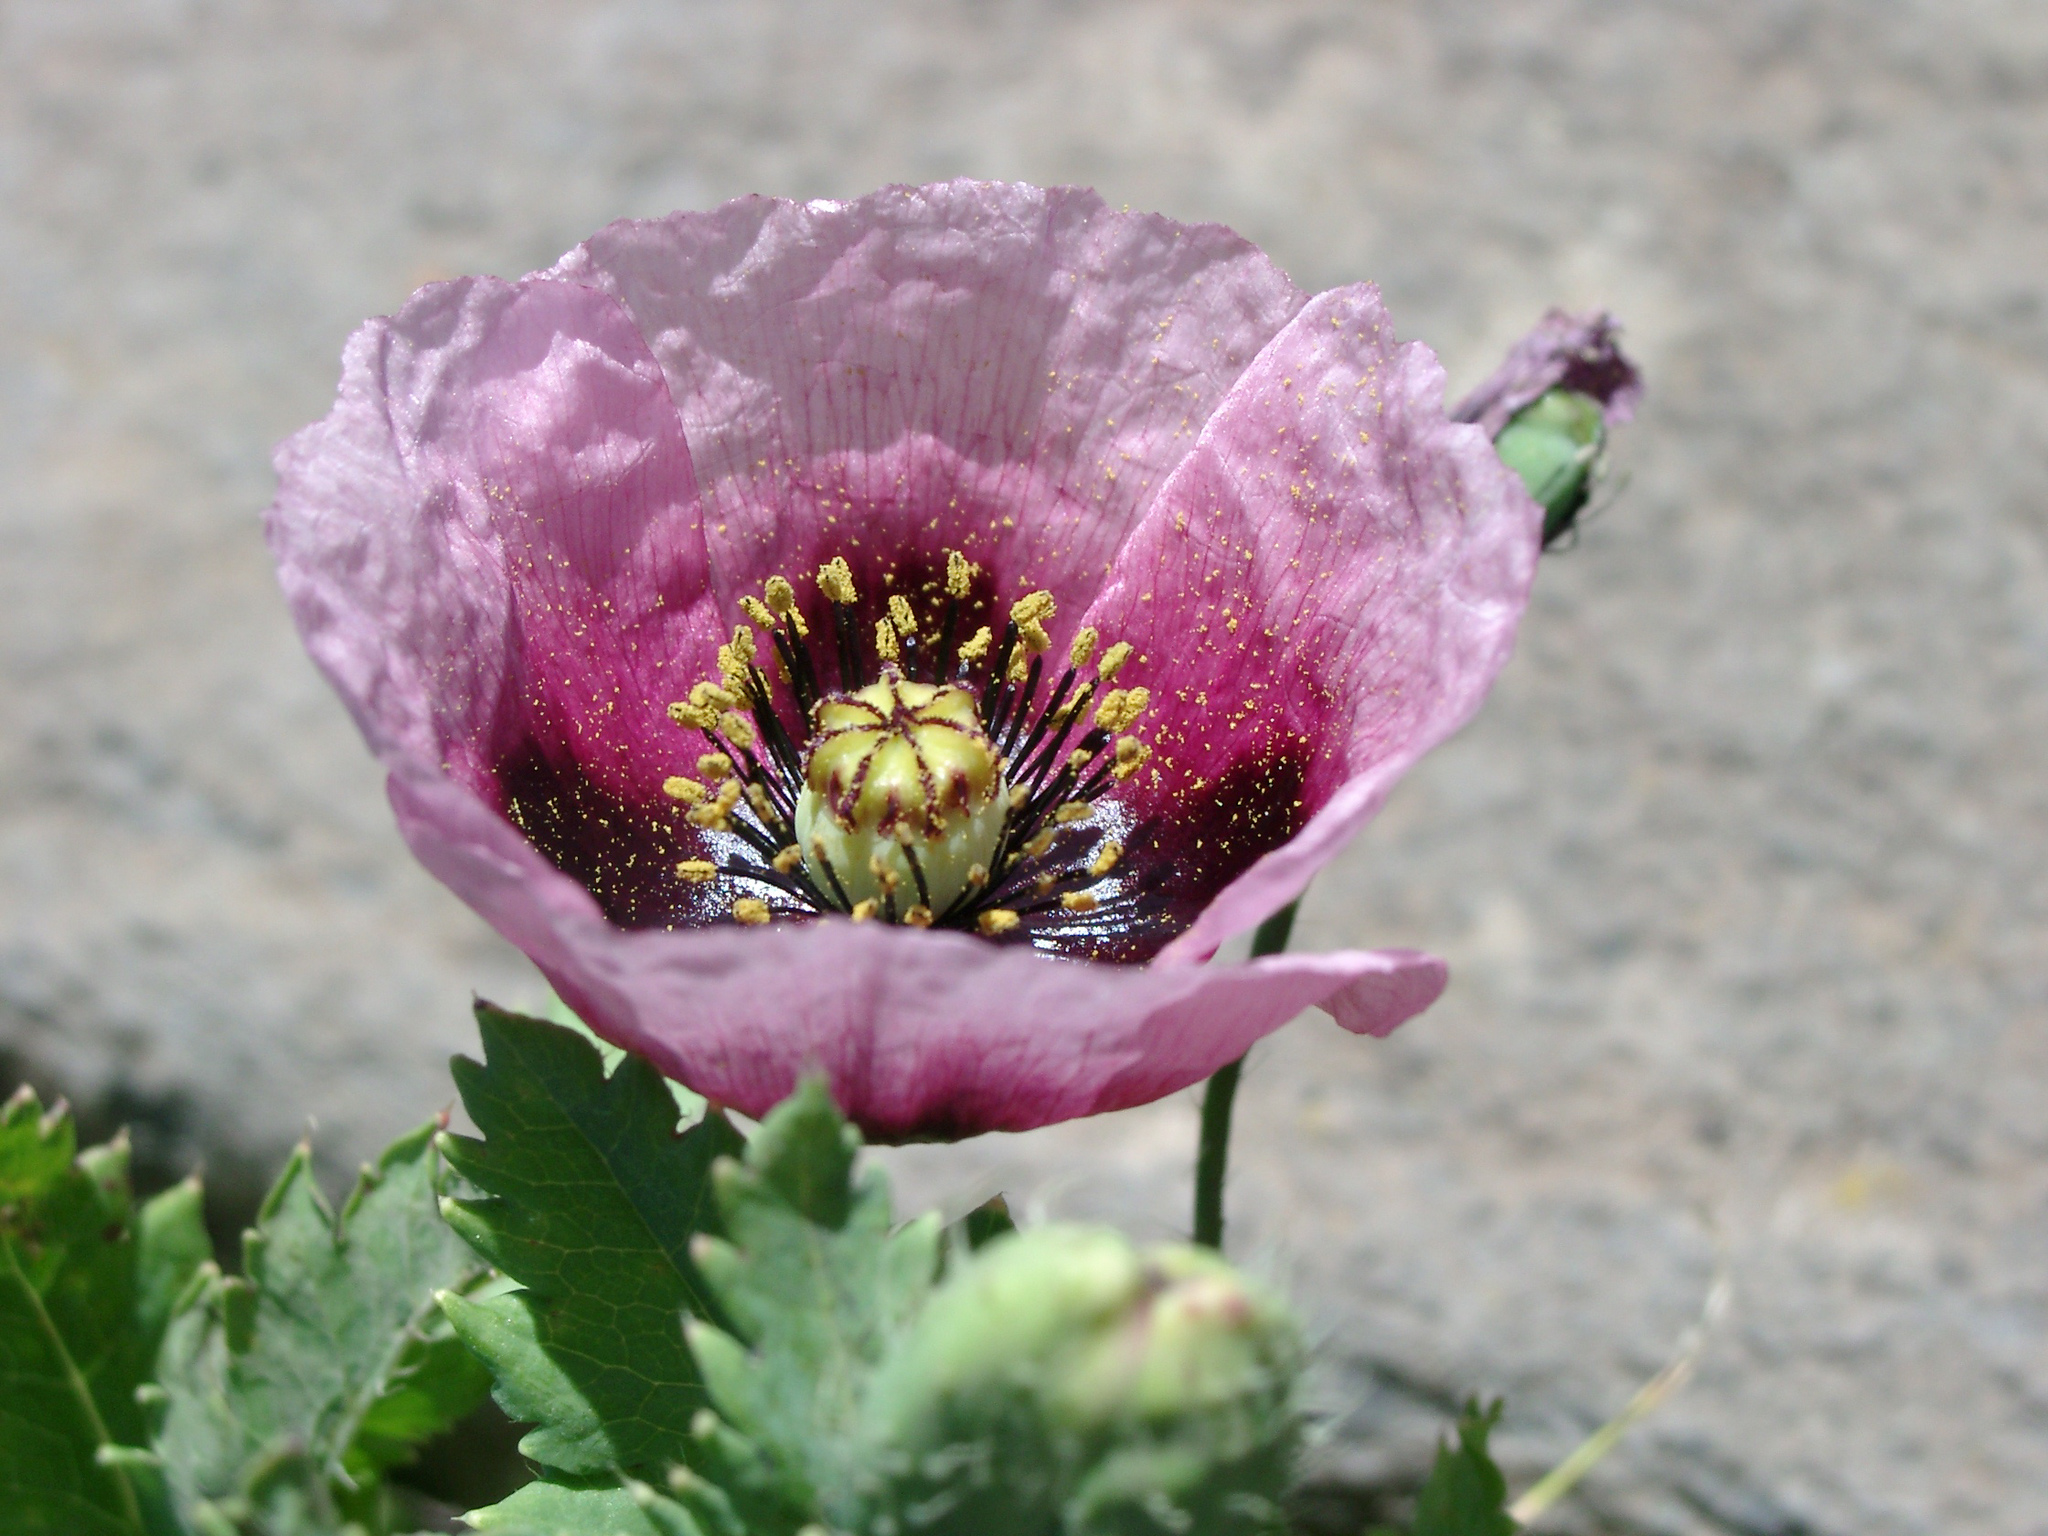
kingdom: Plantae
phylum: Tracheophyta
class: Magnoliopsida
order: Ranunculales
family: Papaveraceae
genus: Papaver
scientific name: Papaver somniferum
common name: Opium poppy
